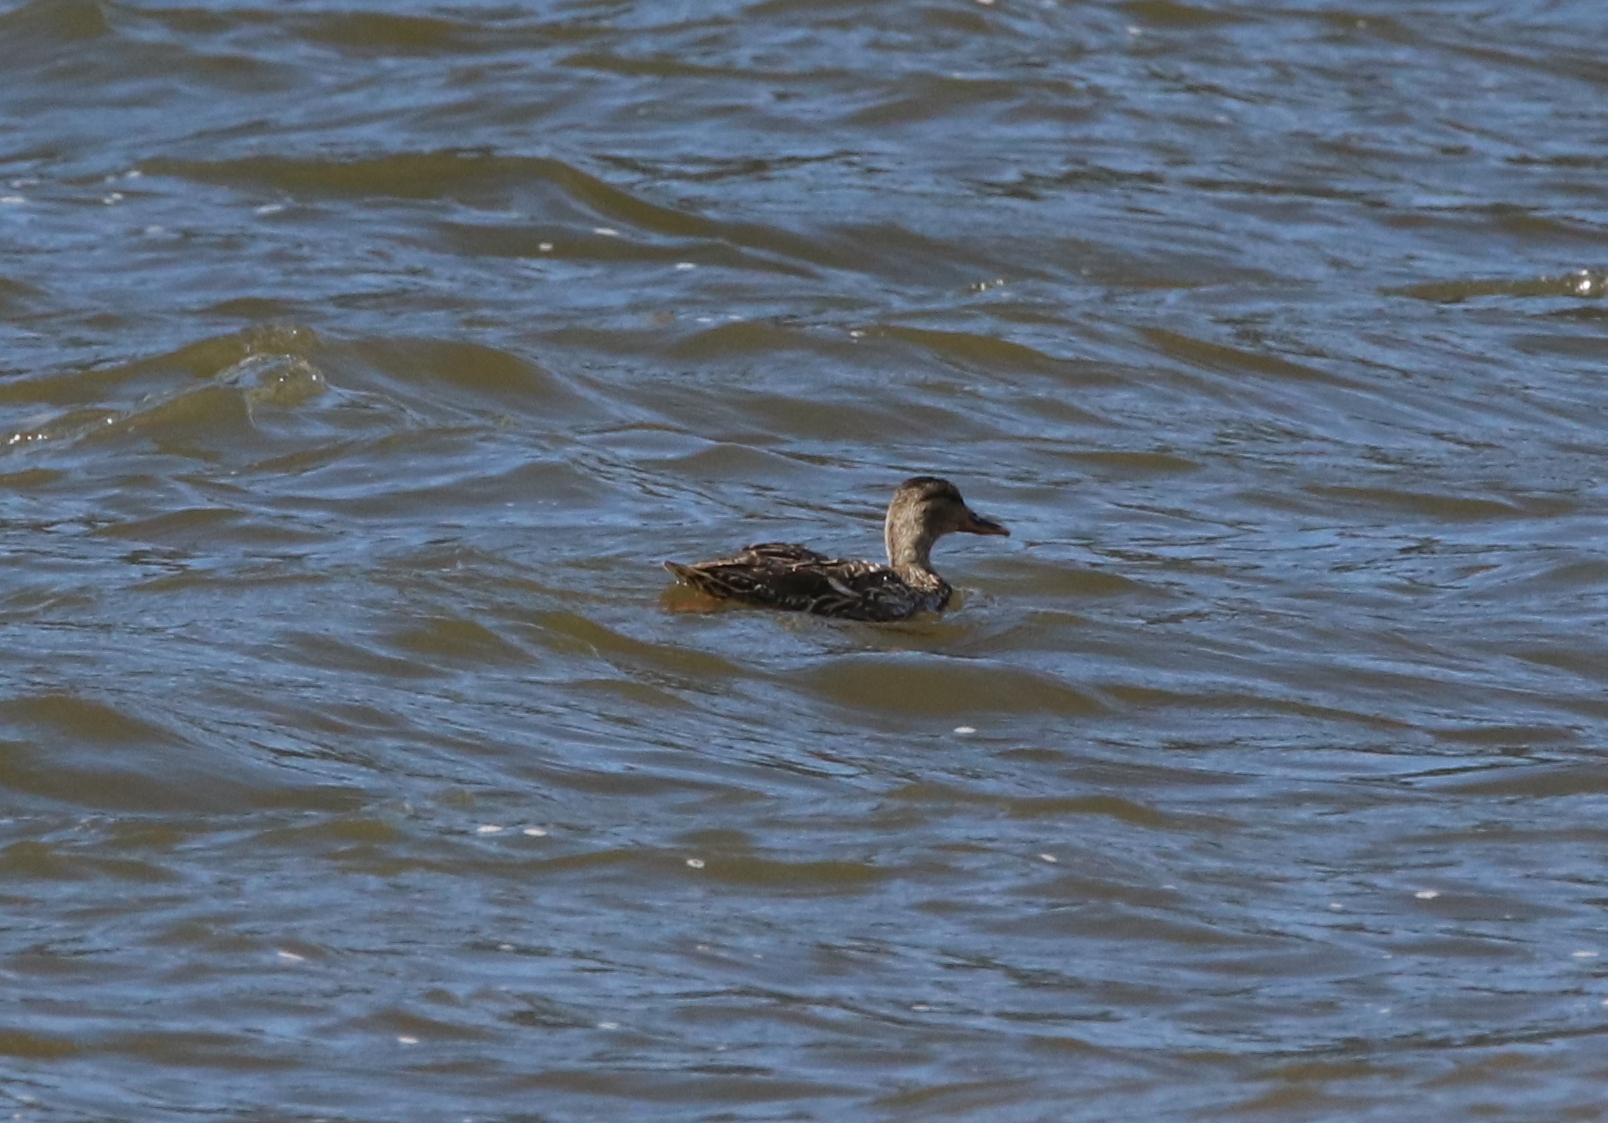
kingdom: Animalia
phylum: Chordata
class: Aves
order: Anseriformes
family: Anatidae
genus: Anas
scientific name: Anas platyrhynchos
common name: Mallard
